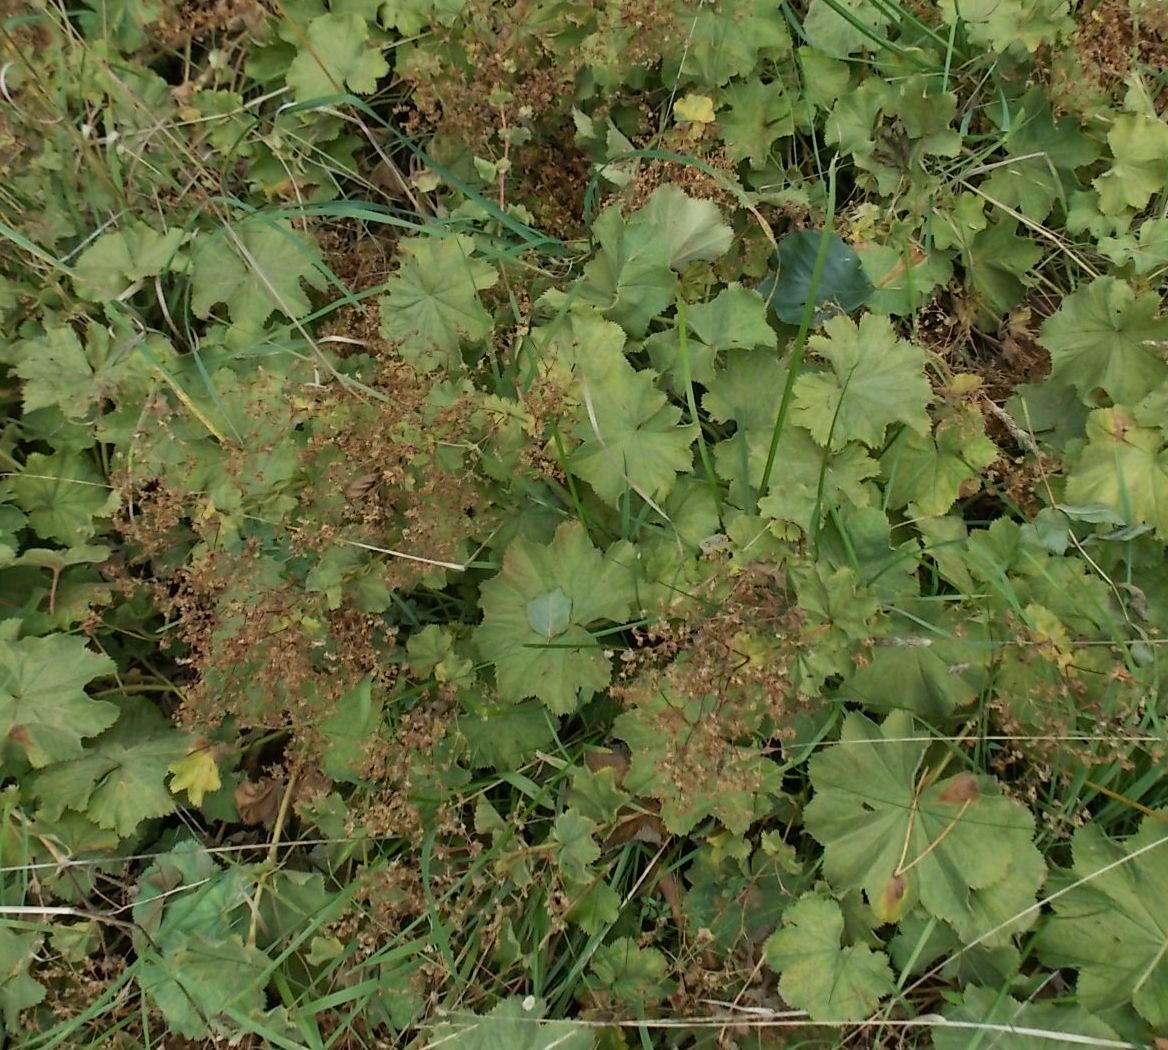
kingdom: Plantae
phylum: Tracheophyta
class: Magnoliopsida
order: Rosales
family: Rosaceae
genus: Alchemilla
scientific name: Alchemilla mollis
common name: Lady's-mantle
